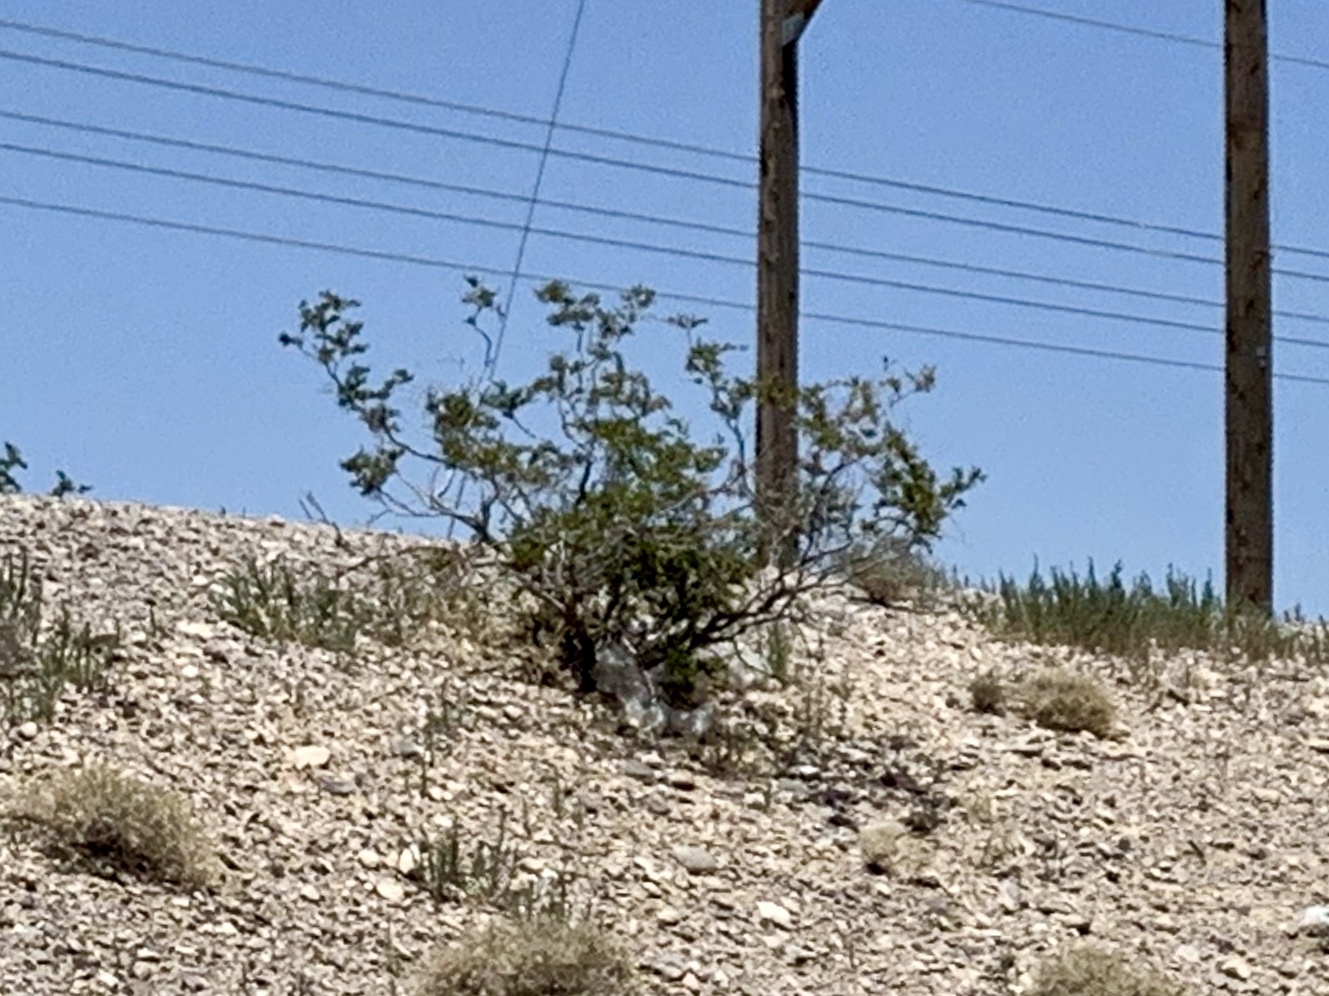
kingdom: Plantae
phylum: Tracheophyta
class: Magnoliopsida
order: Zygophyllales
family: Zygophyllaceae
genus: Larrea
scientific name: Larrea tridentata
